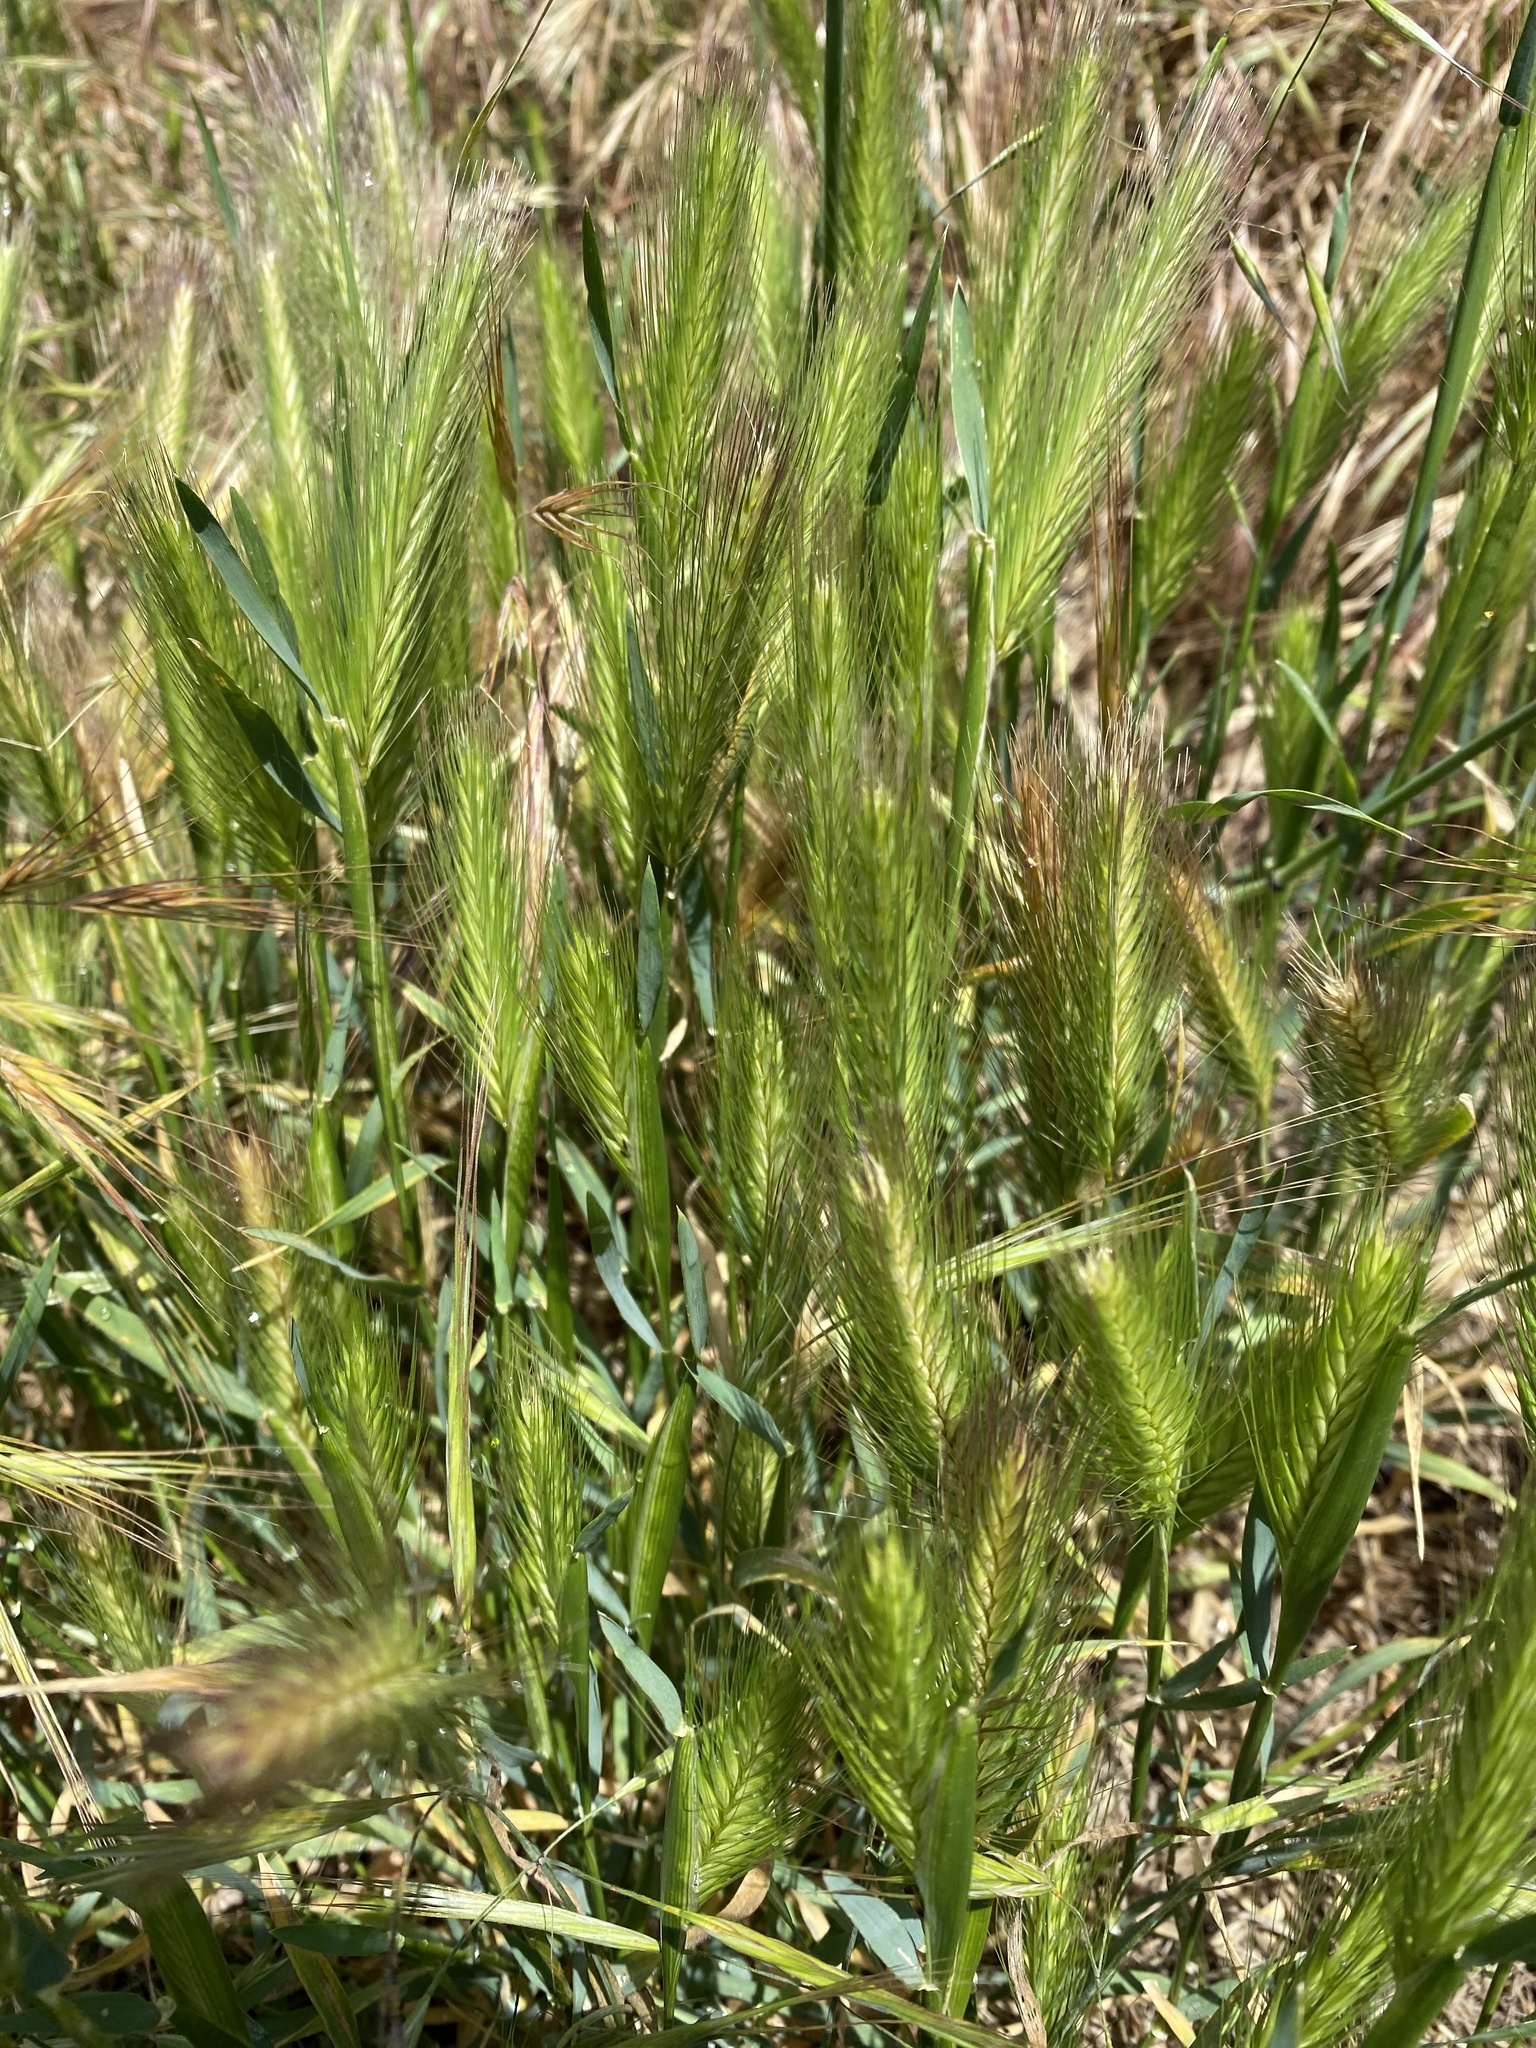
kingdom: Plantae
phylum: Tracheophyta
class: Liliopsida
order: Poales
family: Poaceae
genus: Hordeum
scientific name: Hordeum murinum
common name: Wall barley
